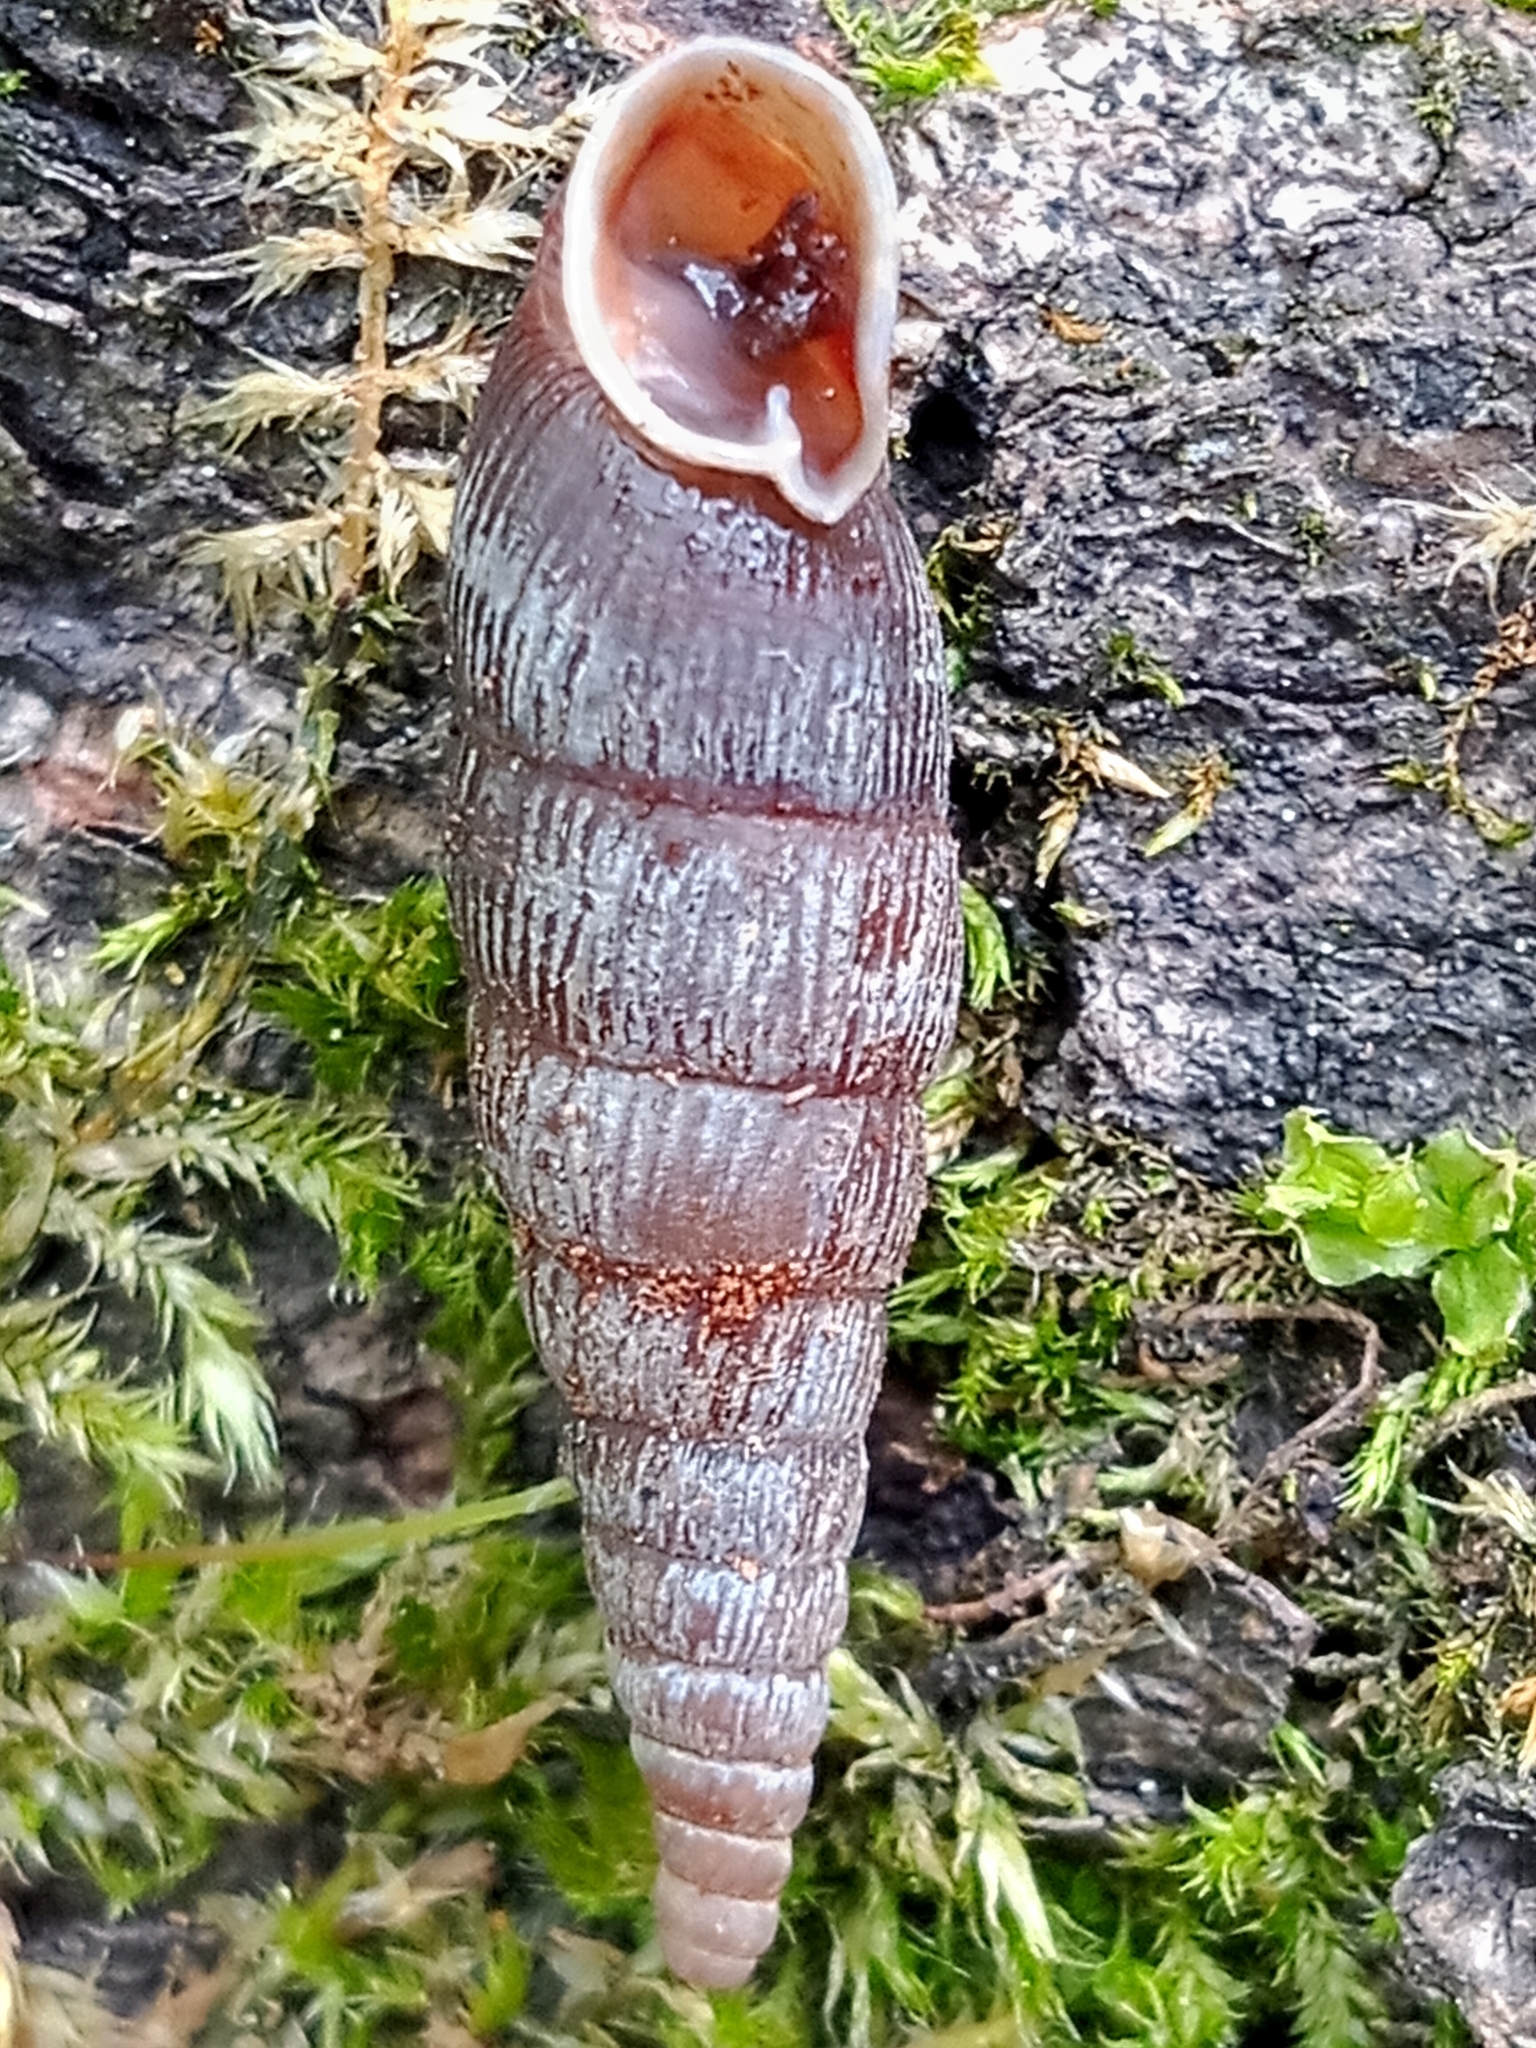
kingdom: Animalia
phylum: Mollusca
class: Gastropoda
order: Stylommatophora
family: Clausiliidae
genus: Macrogastra
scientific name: Macrogastra ventricosa
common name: Ventricose door snail
